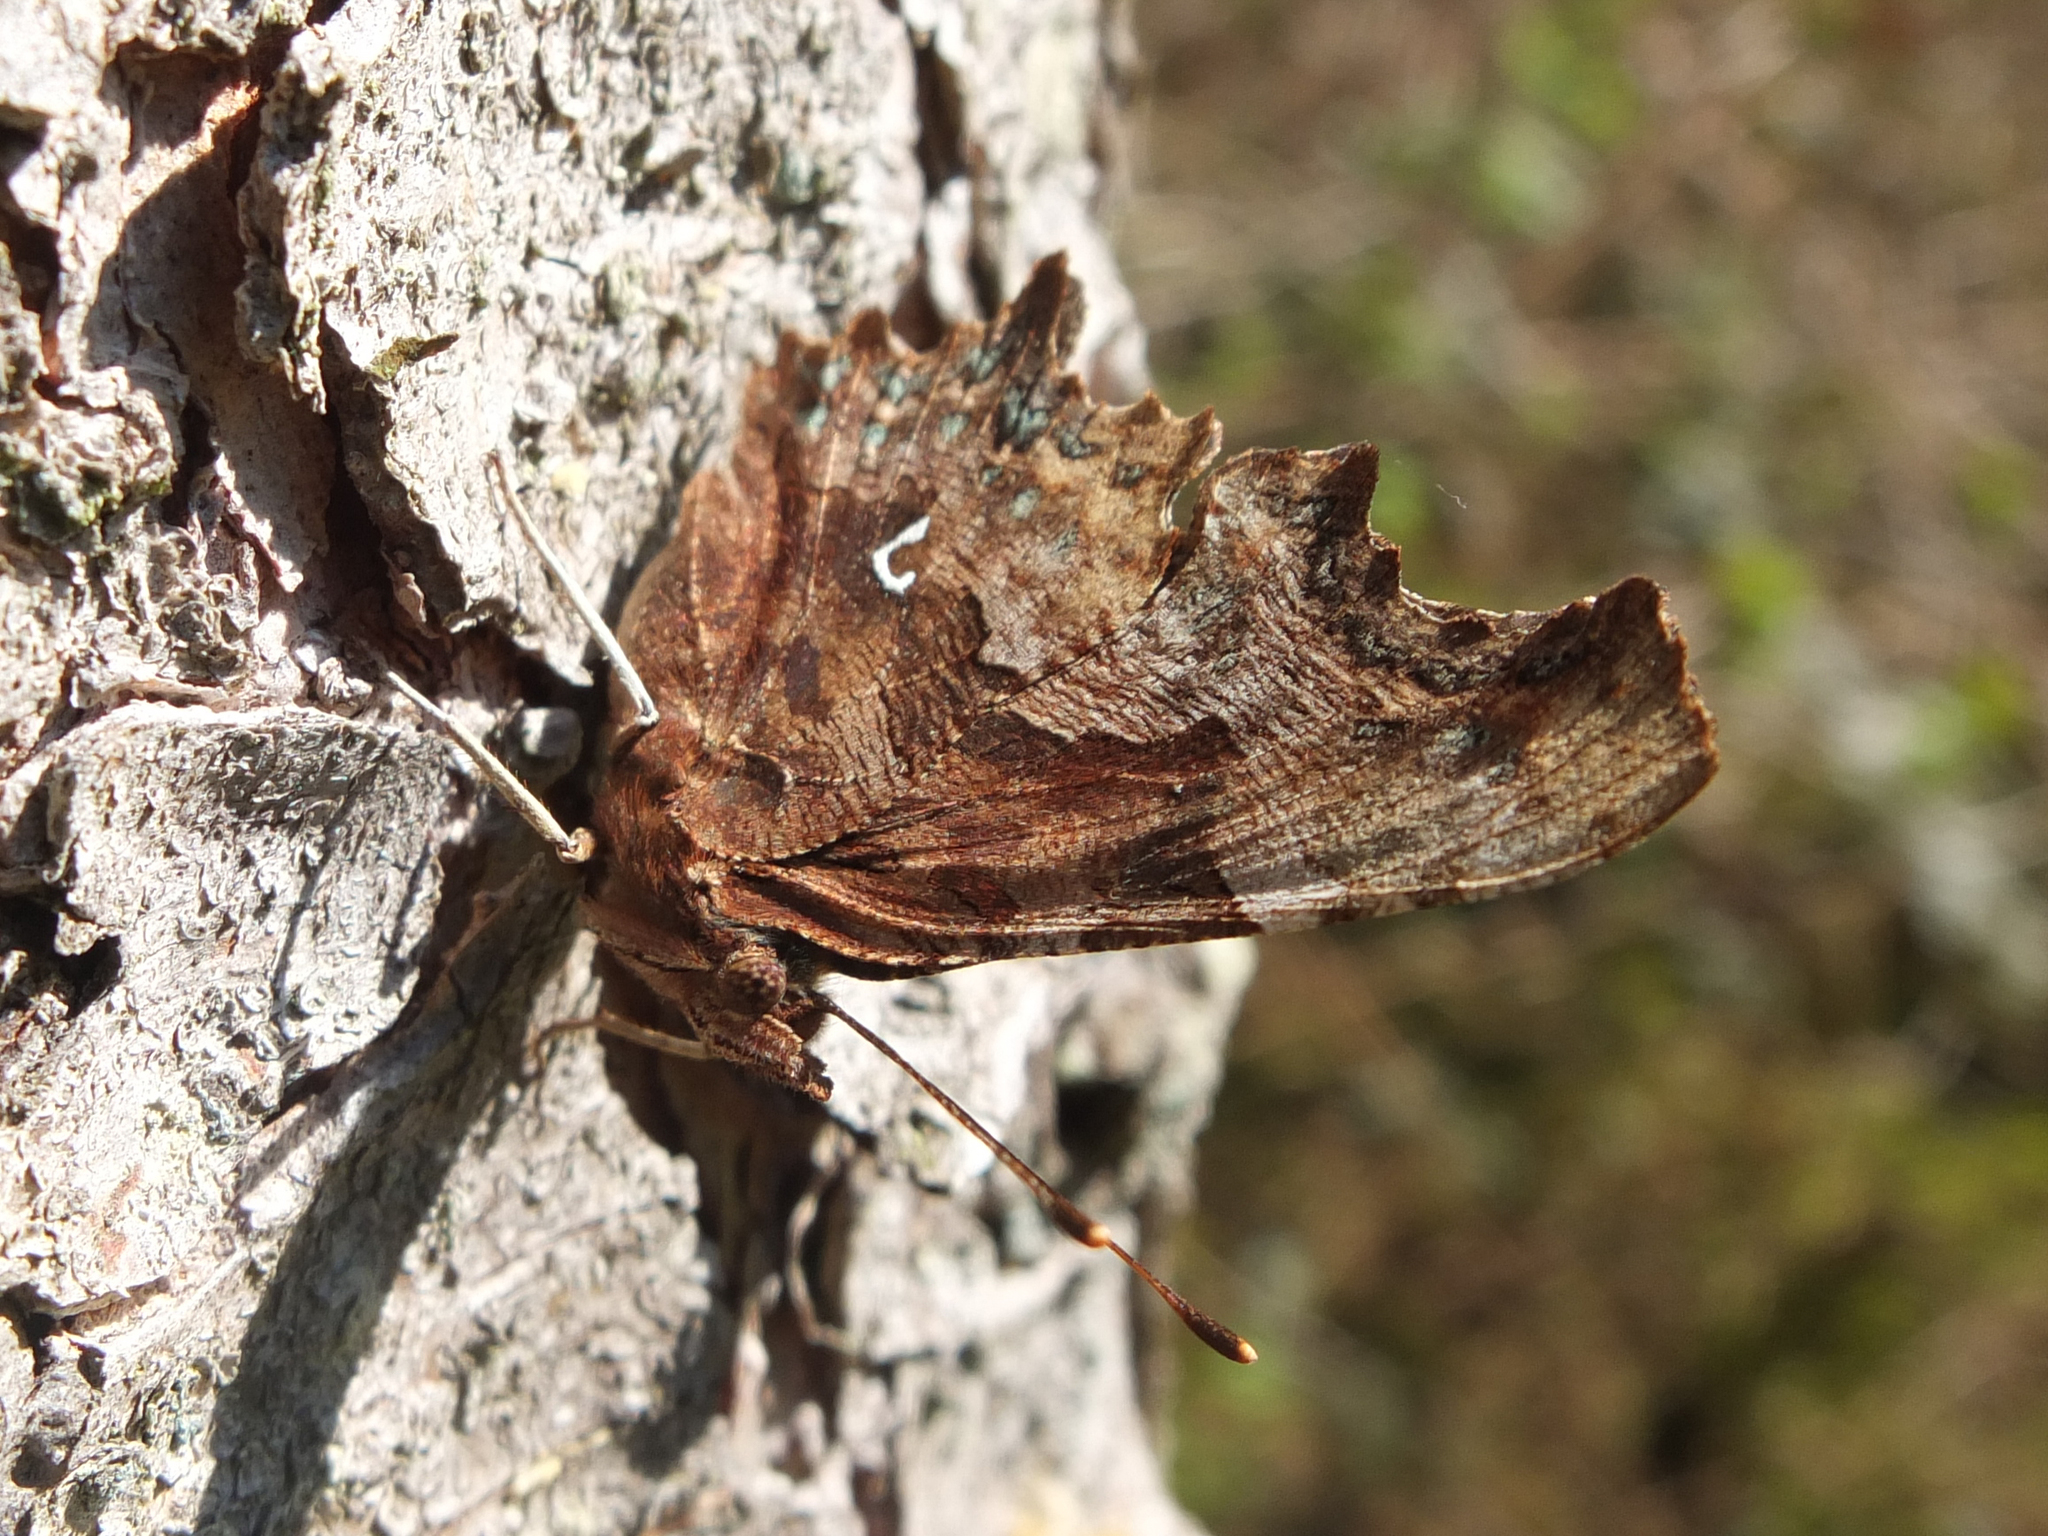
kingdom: Animalia
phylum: Arthropoda
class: Insecta
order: Lepidoptera
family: Nymphalidae
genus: Polygonia
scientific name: Polygonia c-album
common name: Comma
